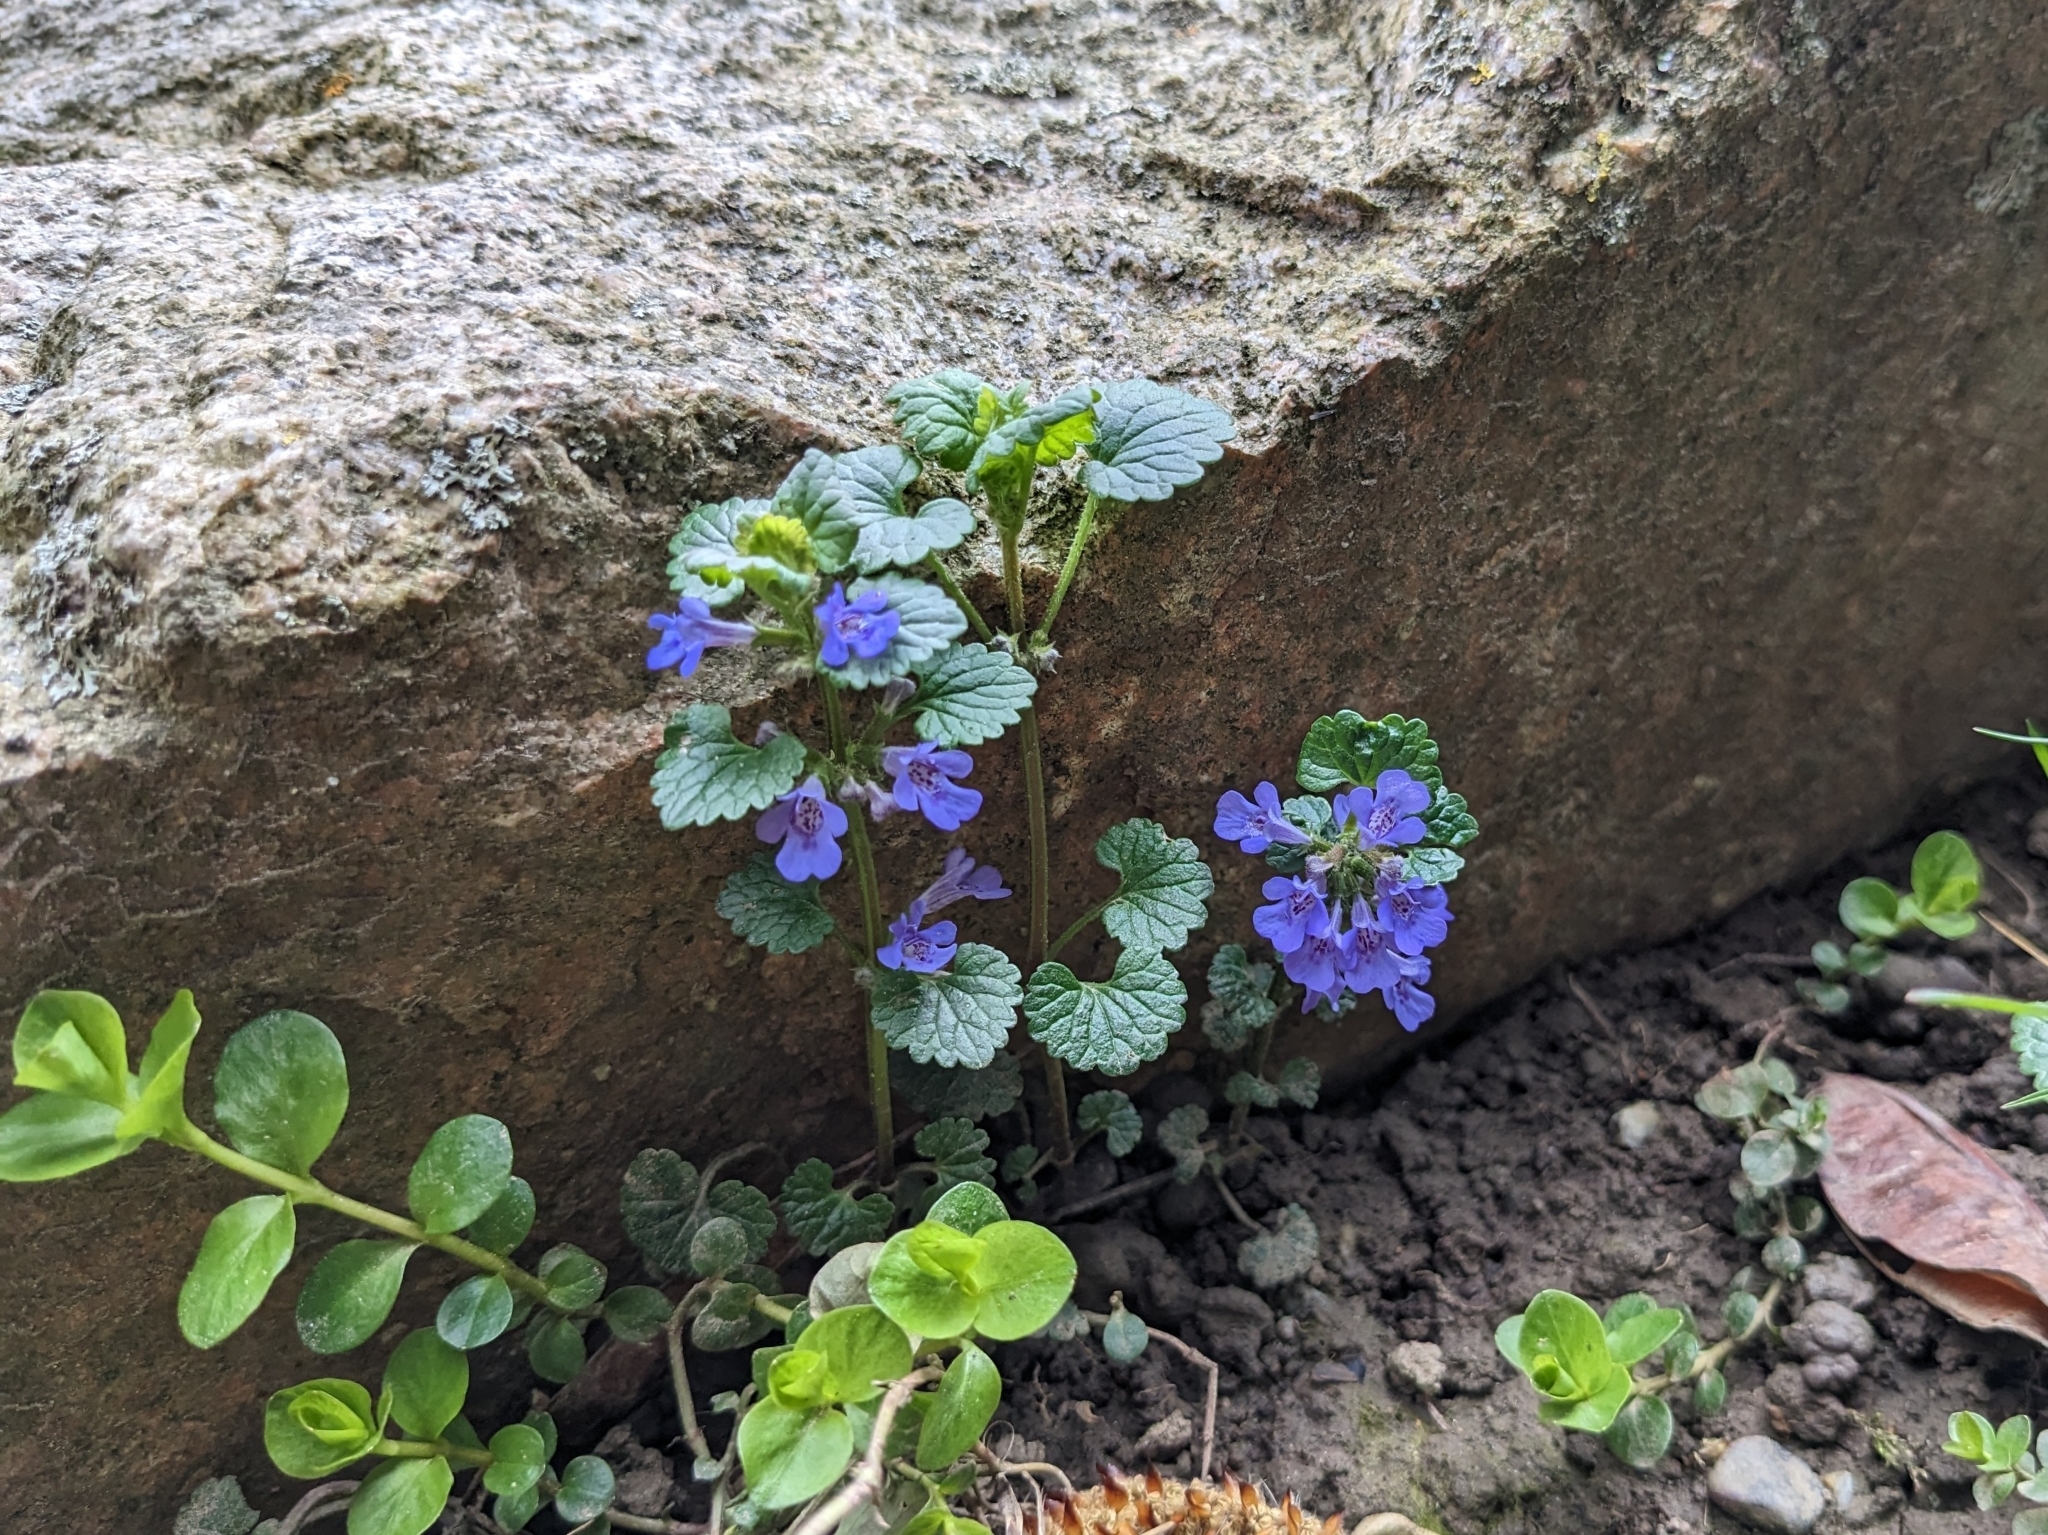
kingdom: Plantae
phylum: Tracheophyta
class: Magnoliopsida
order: Lamiales
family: Lamiaceae
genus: Glechoma
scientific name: Glechoma hederacea
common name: Ground ivy
